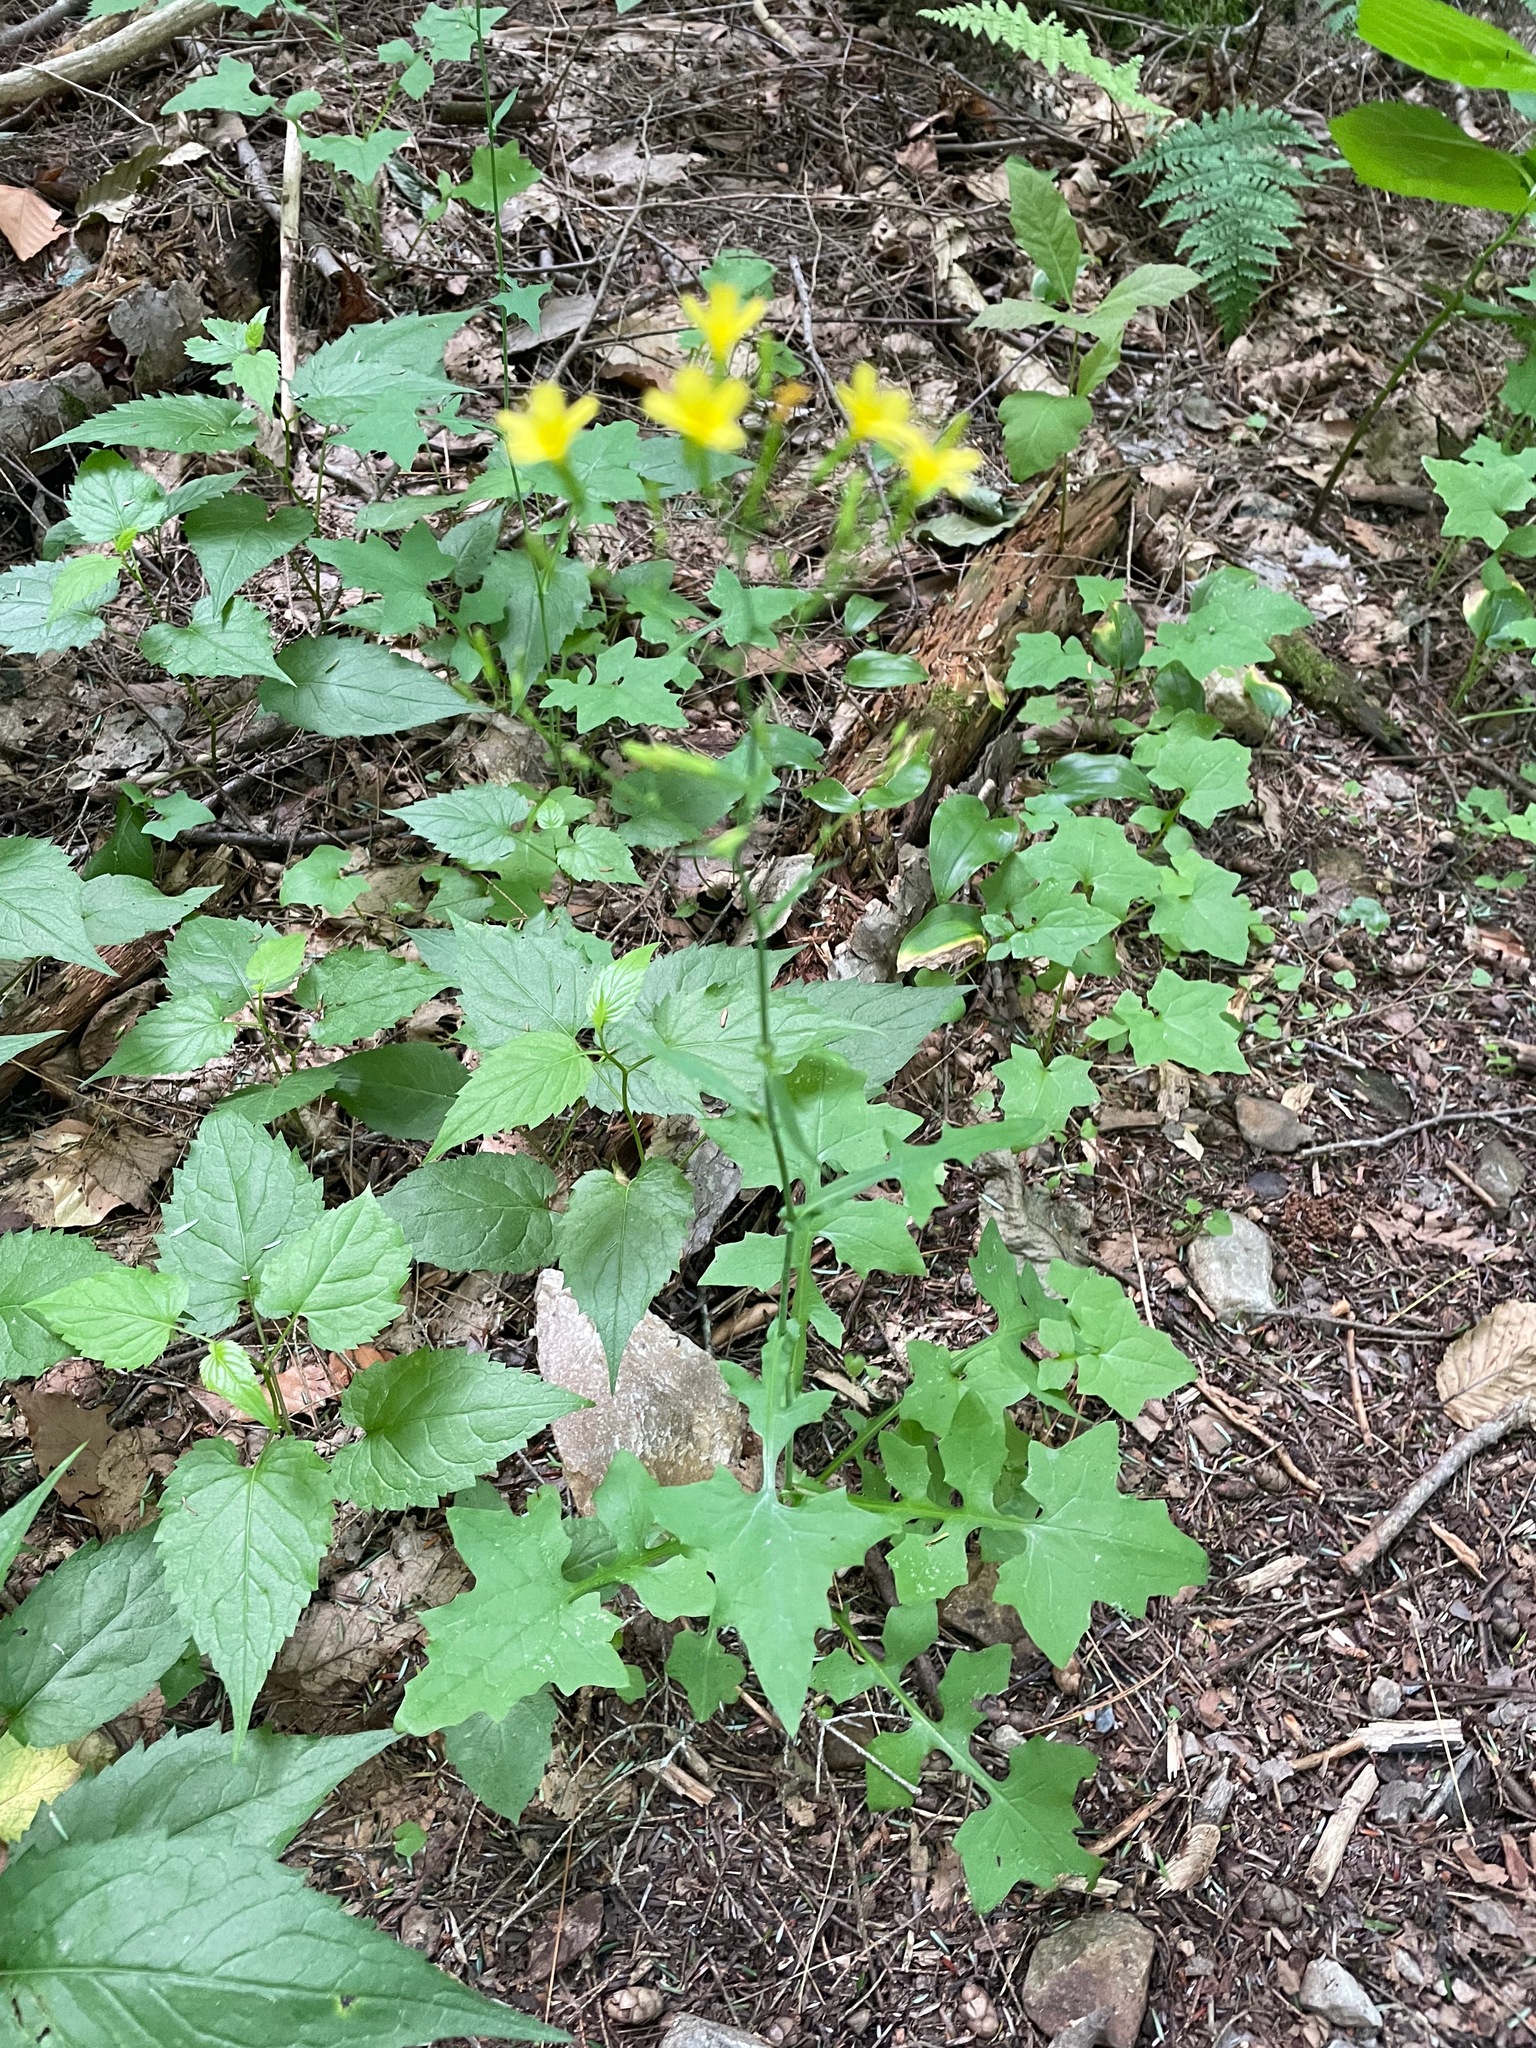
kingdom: Plantae
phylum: Tracheophyta
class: Magnoliopsida
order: Asterales
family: Asteraceae
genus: Mycelis
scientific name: Mycelis muralis
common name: Wall lettuce
